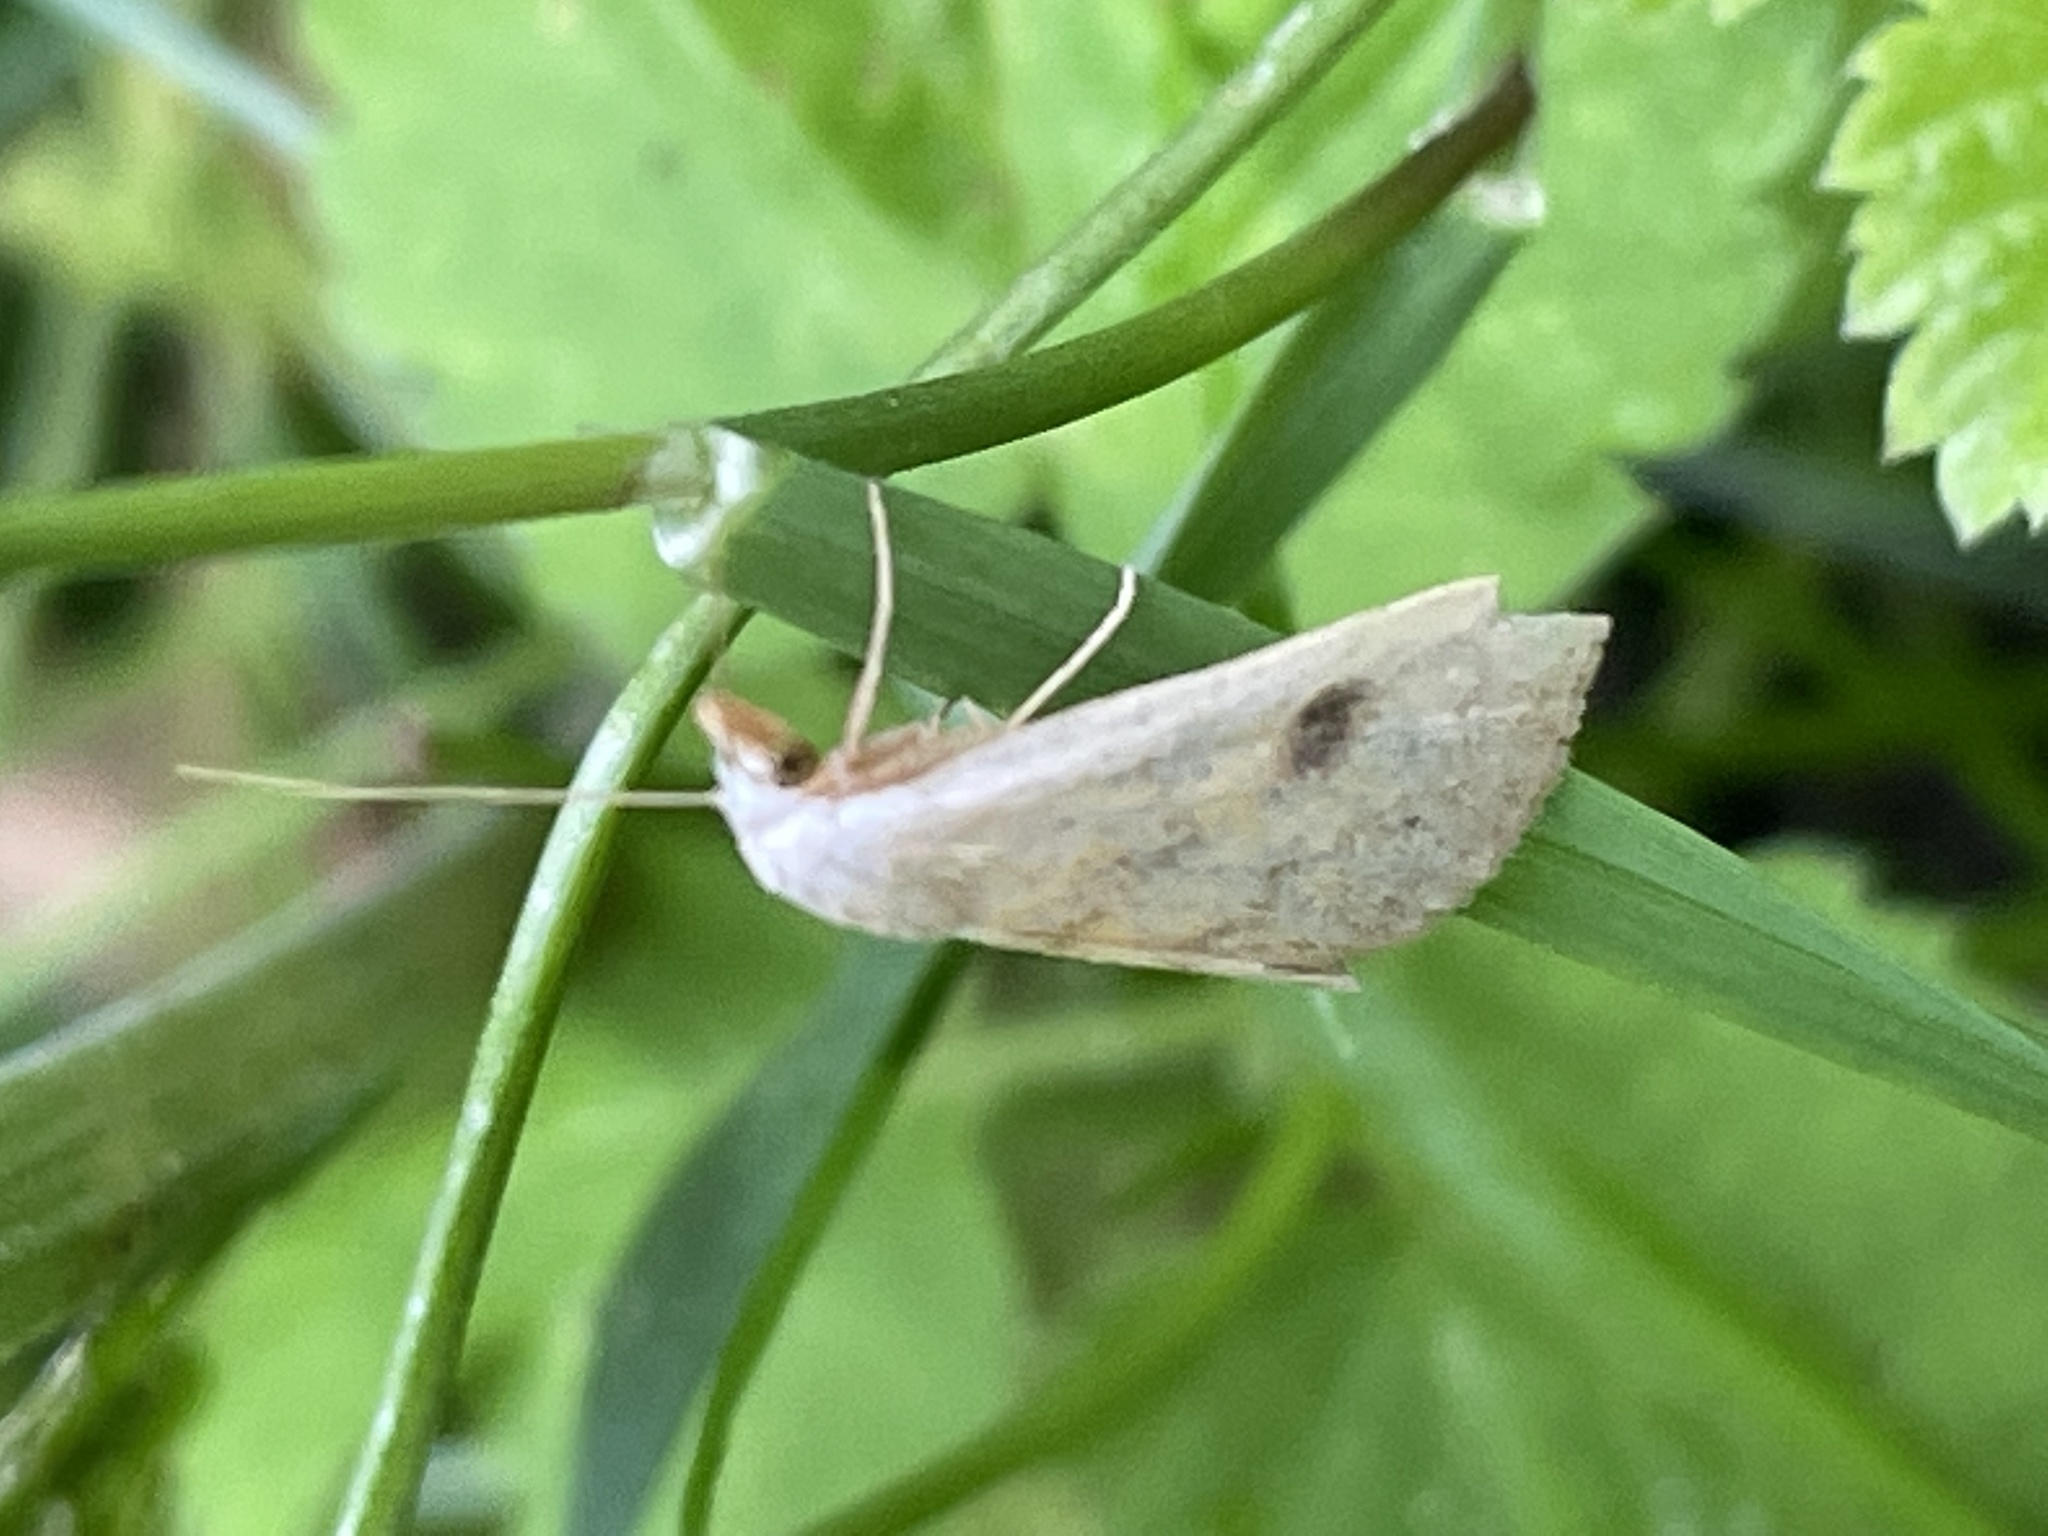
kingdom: Animalia
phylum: Arthropoda
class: Insecta
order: Lepidoptera
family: Erebidae
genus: Rivula
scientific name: Rivula sericealis
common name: Straw dot
